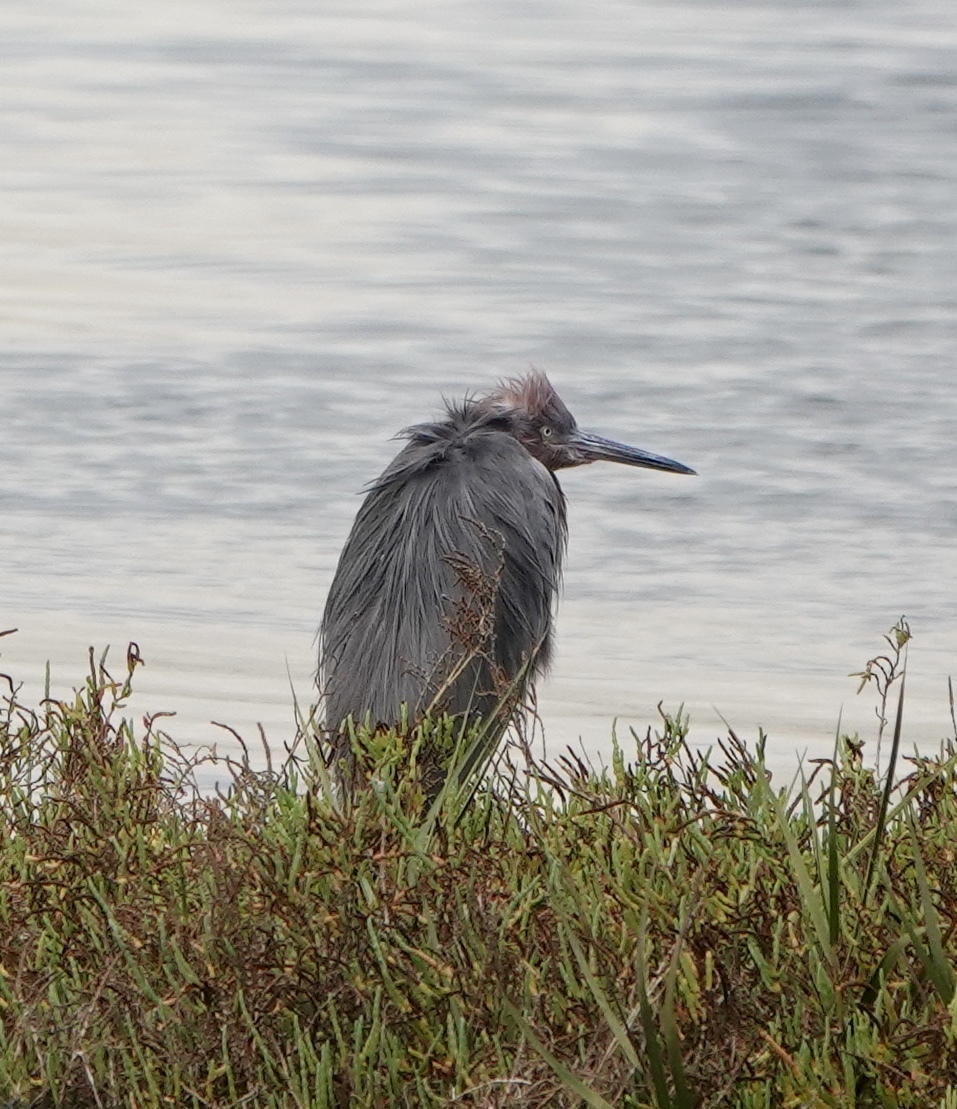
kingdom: Animalia
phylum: Chordata
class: Aves
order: Pelecaniformes
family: Ardeidae
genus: Egretta
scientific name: Egretta rufescens
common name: Reddish egret
